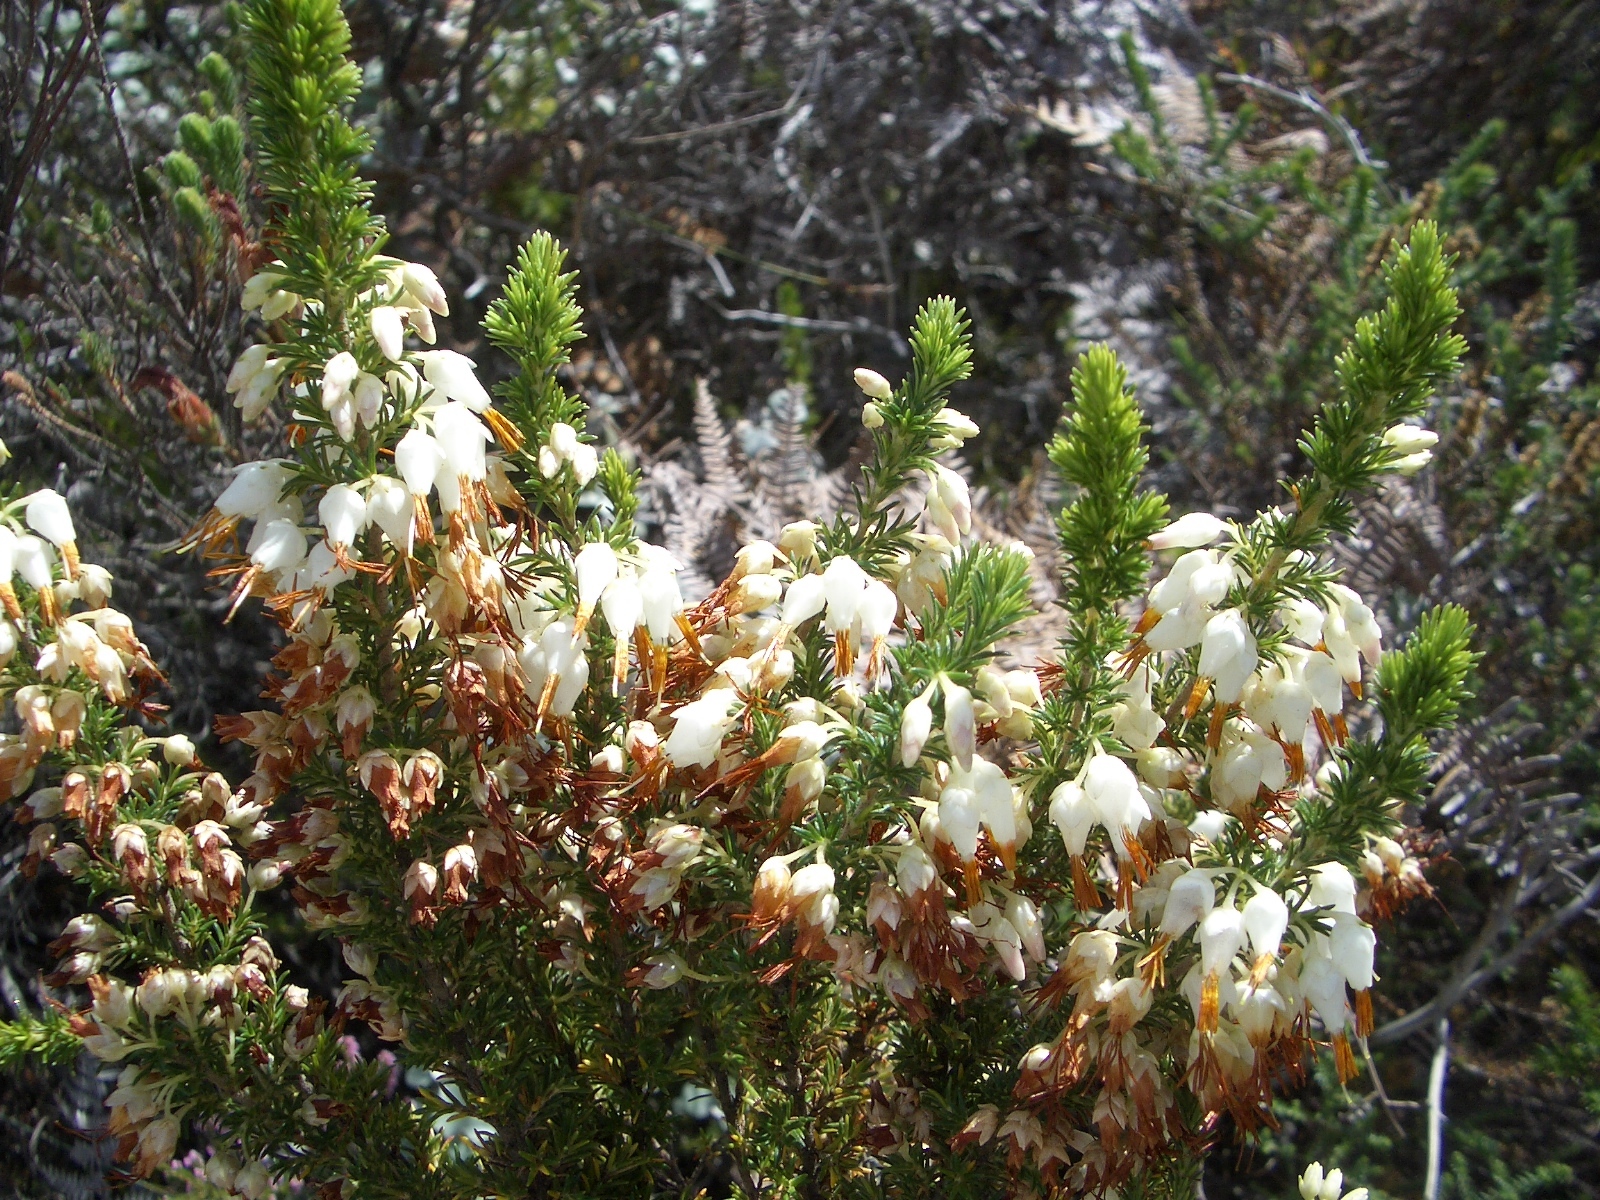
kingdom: Plantae
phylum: Tracheophyta
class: Magnoliopsida
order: Ericales
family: Ericaceae
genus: Erica
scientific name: Erica intermedia
